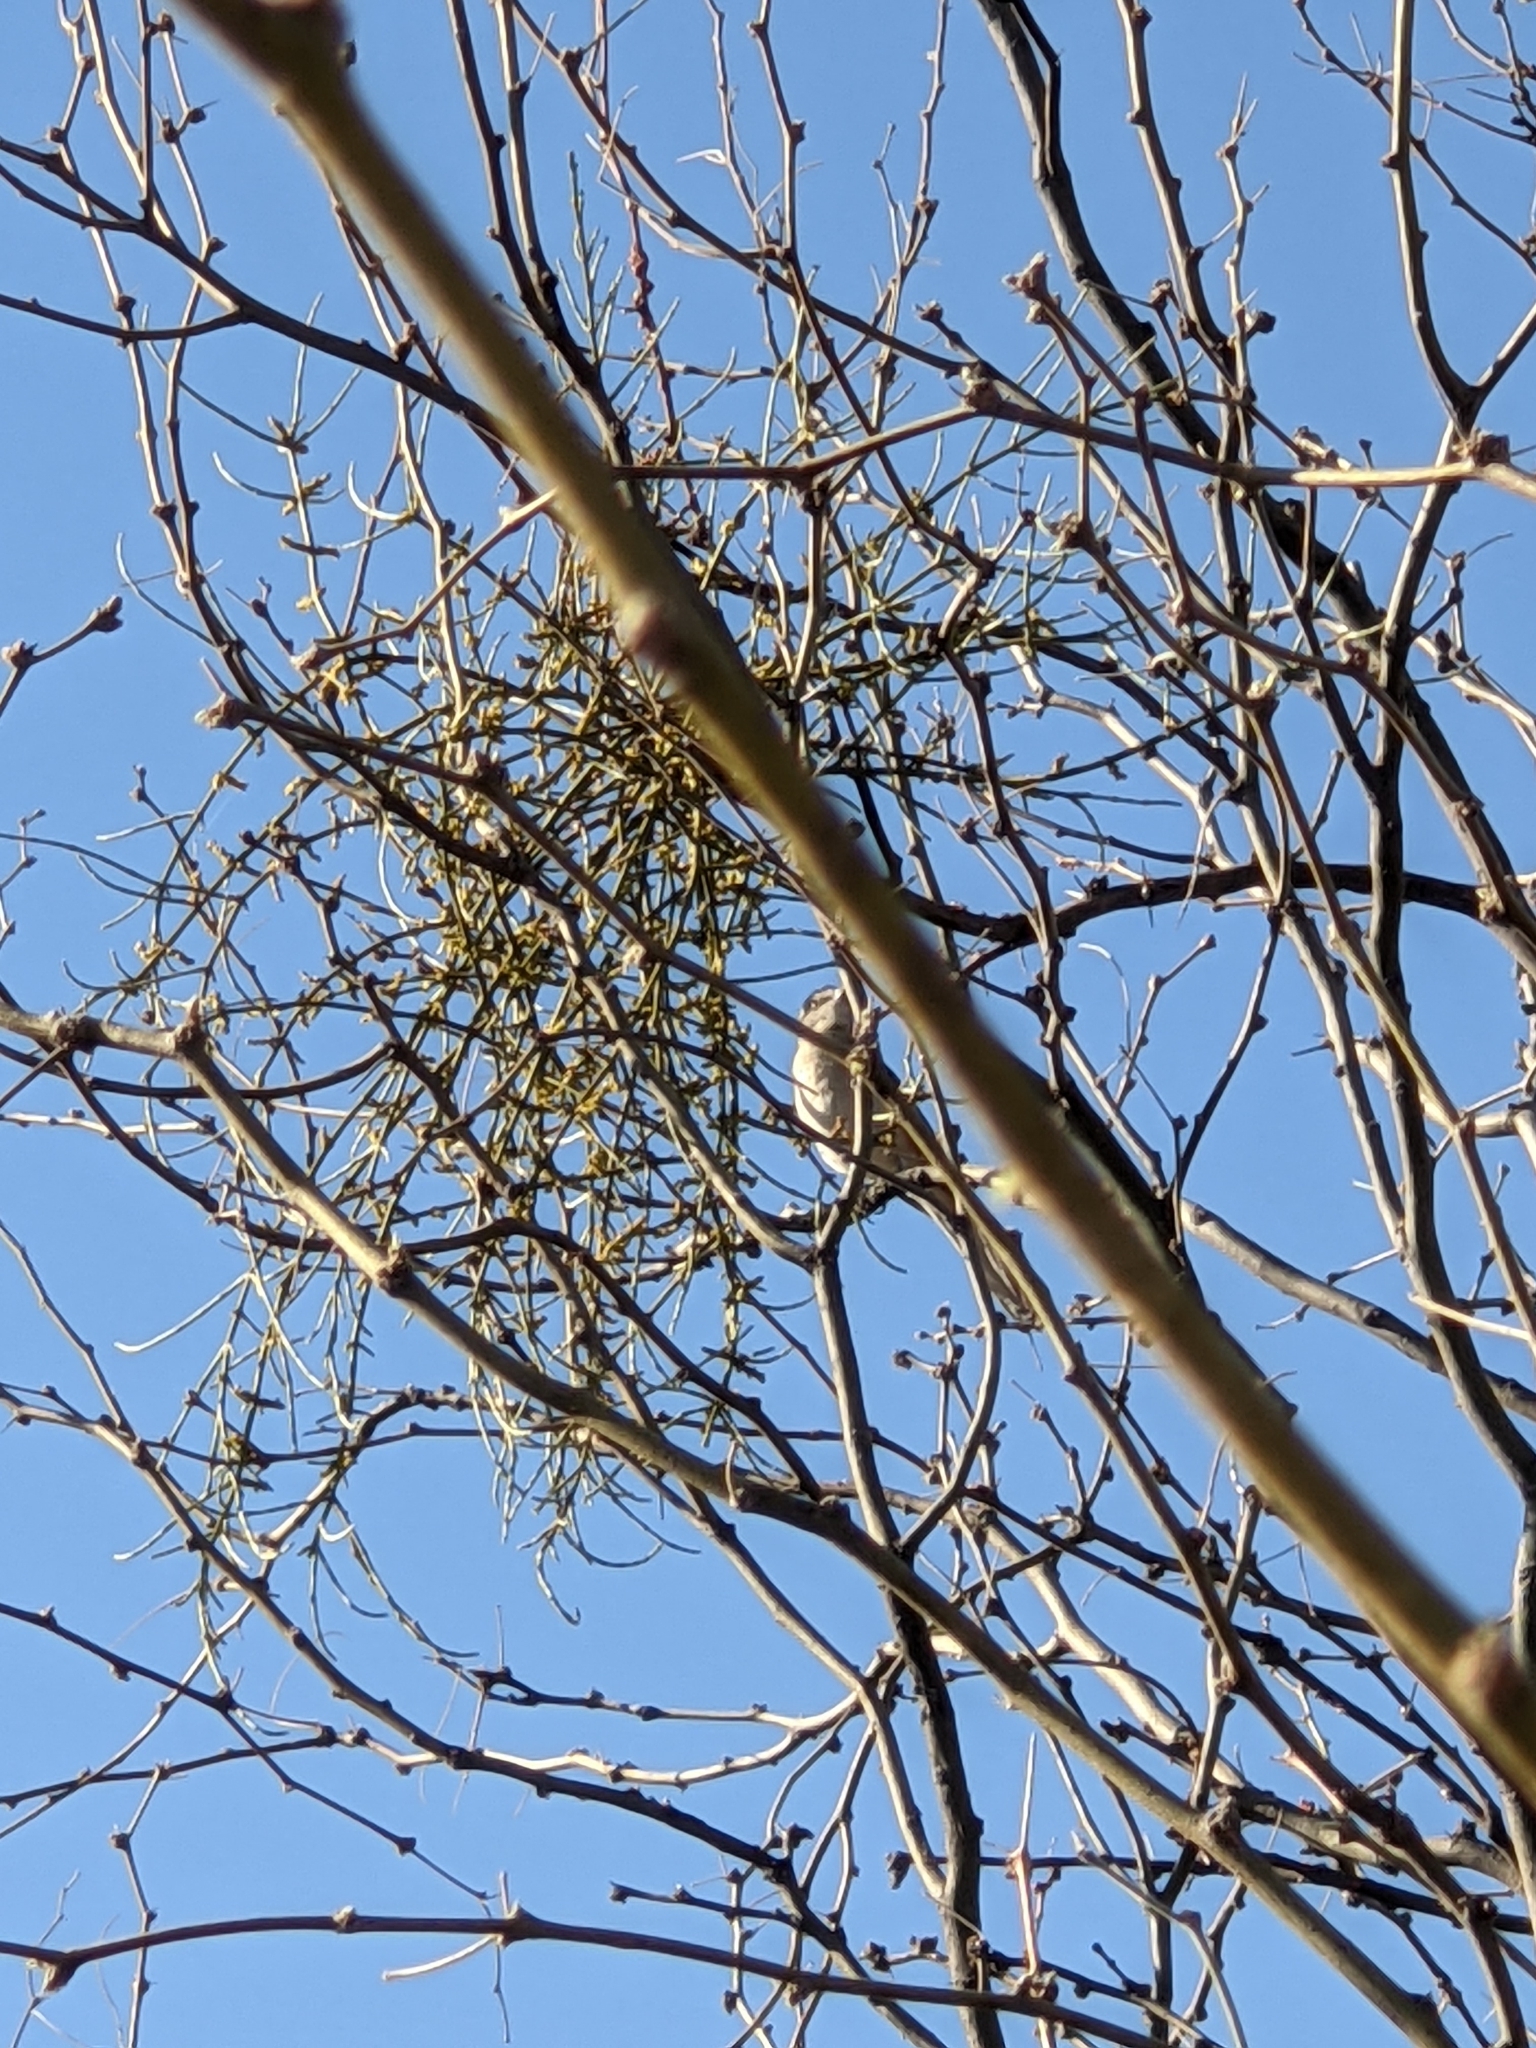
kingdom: Animalia
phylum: Chordata
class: Aves
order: Passeriformes
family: Mimidae
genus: Mimus
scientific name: Mimus polyglottos
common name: Northern mockingbird
